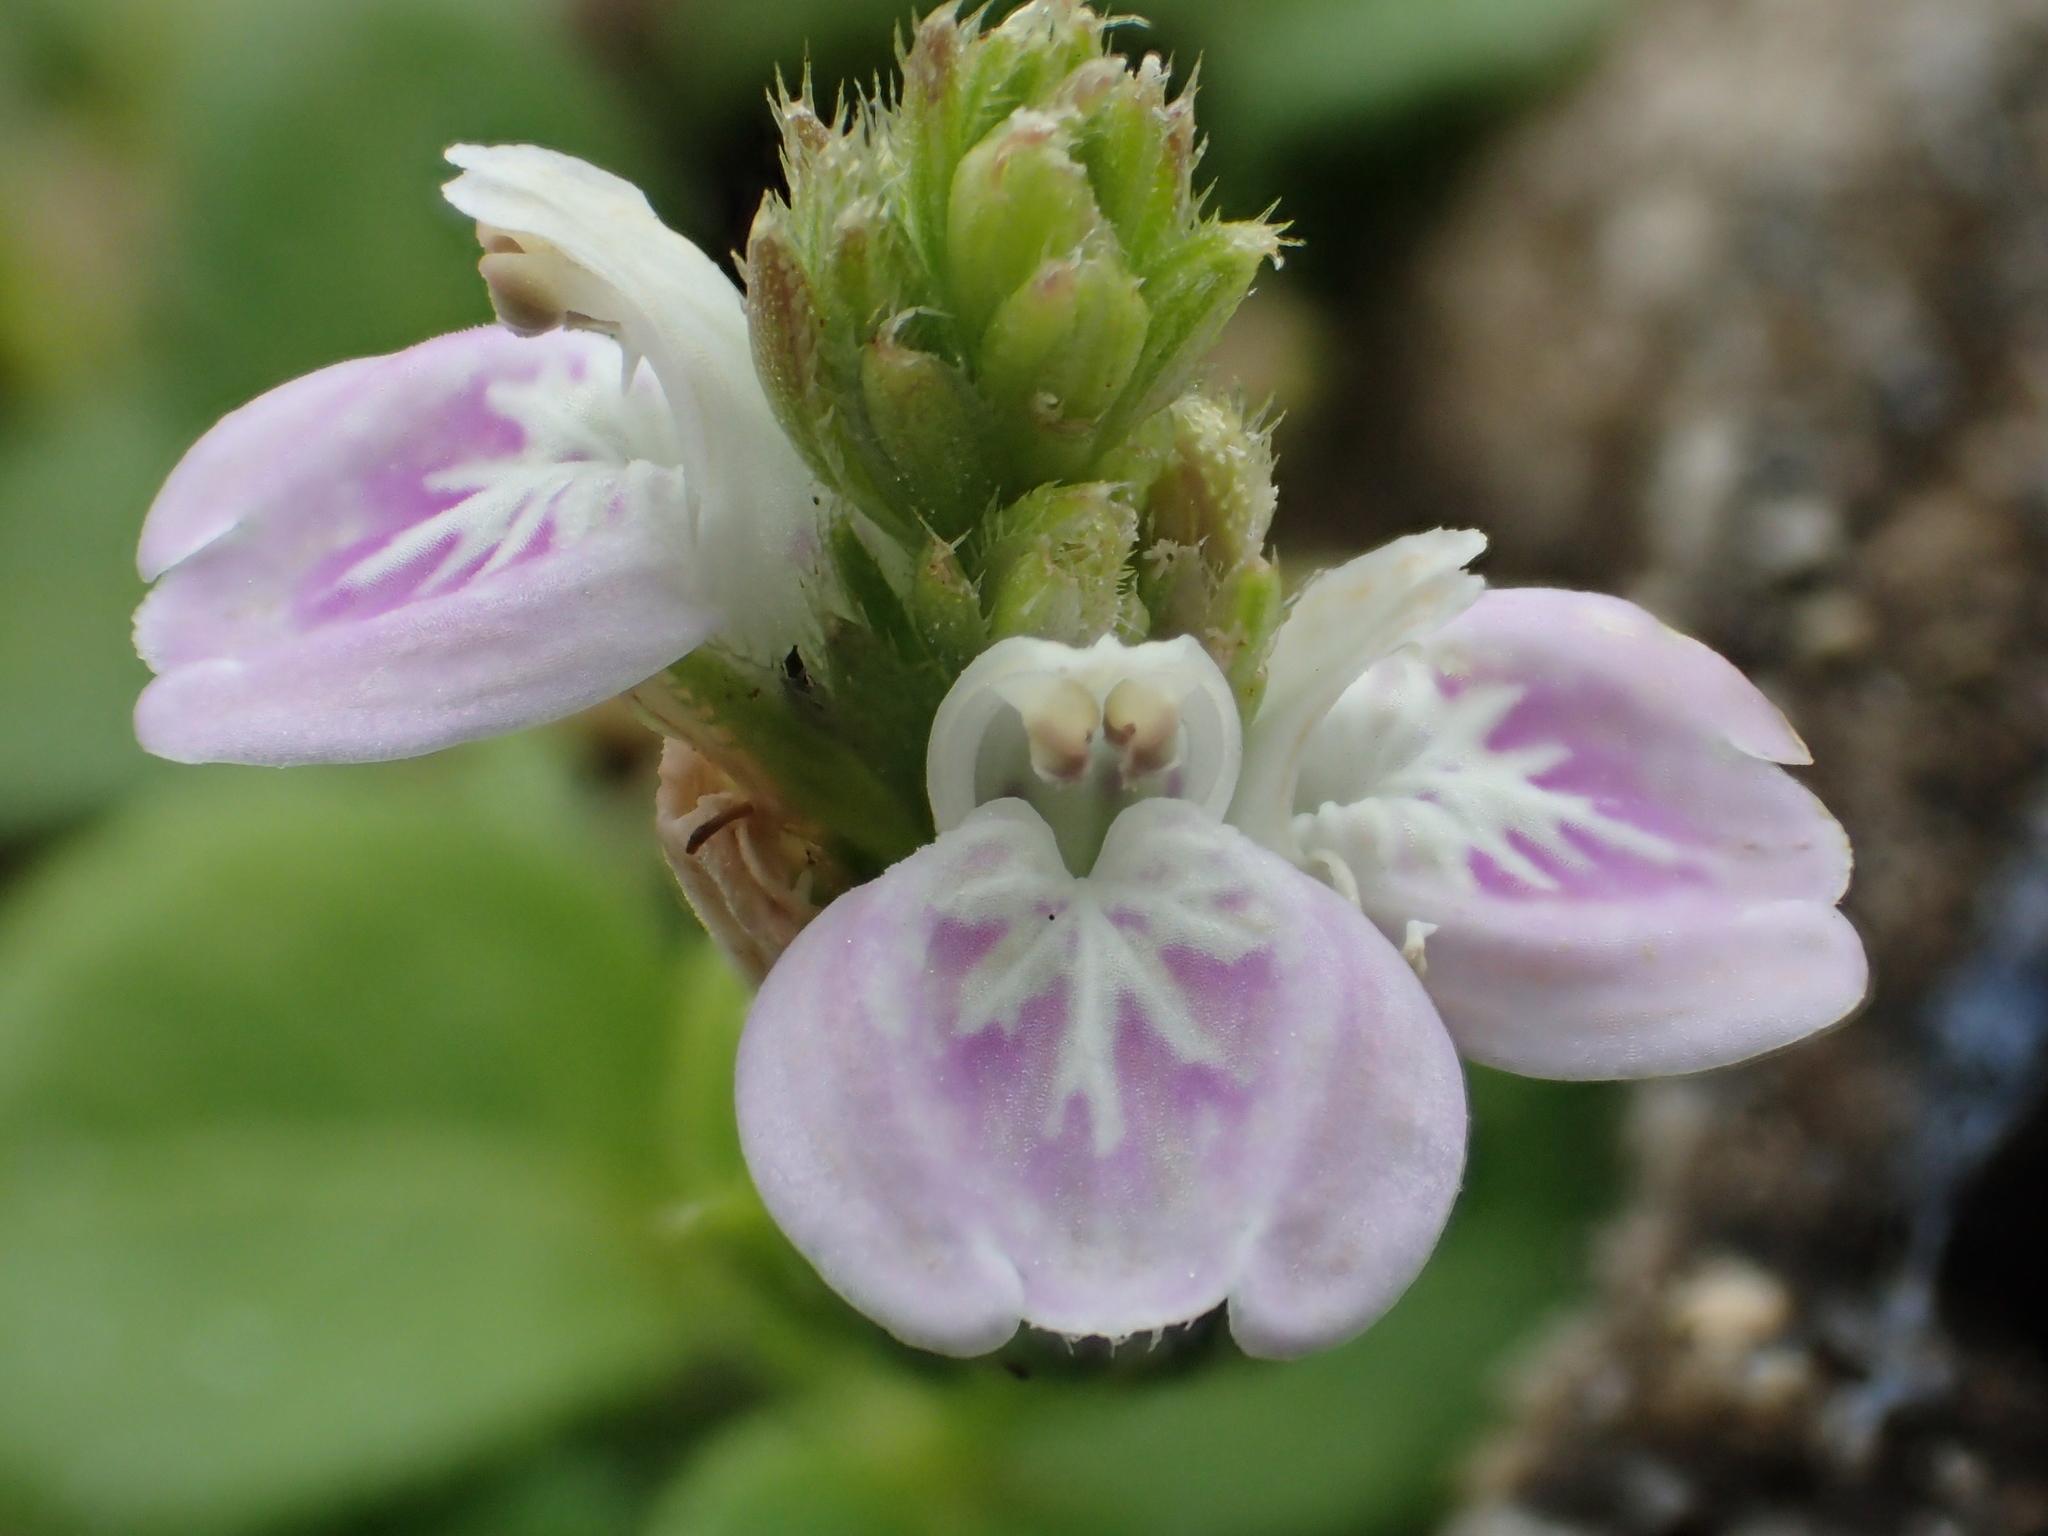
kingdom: Plantae
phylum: Tracheophyta
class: Magnoliopsida
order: Lamiales
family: Acanthaceae
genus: Rostellularia
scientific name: Rostellularia hayatae
